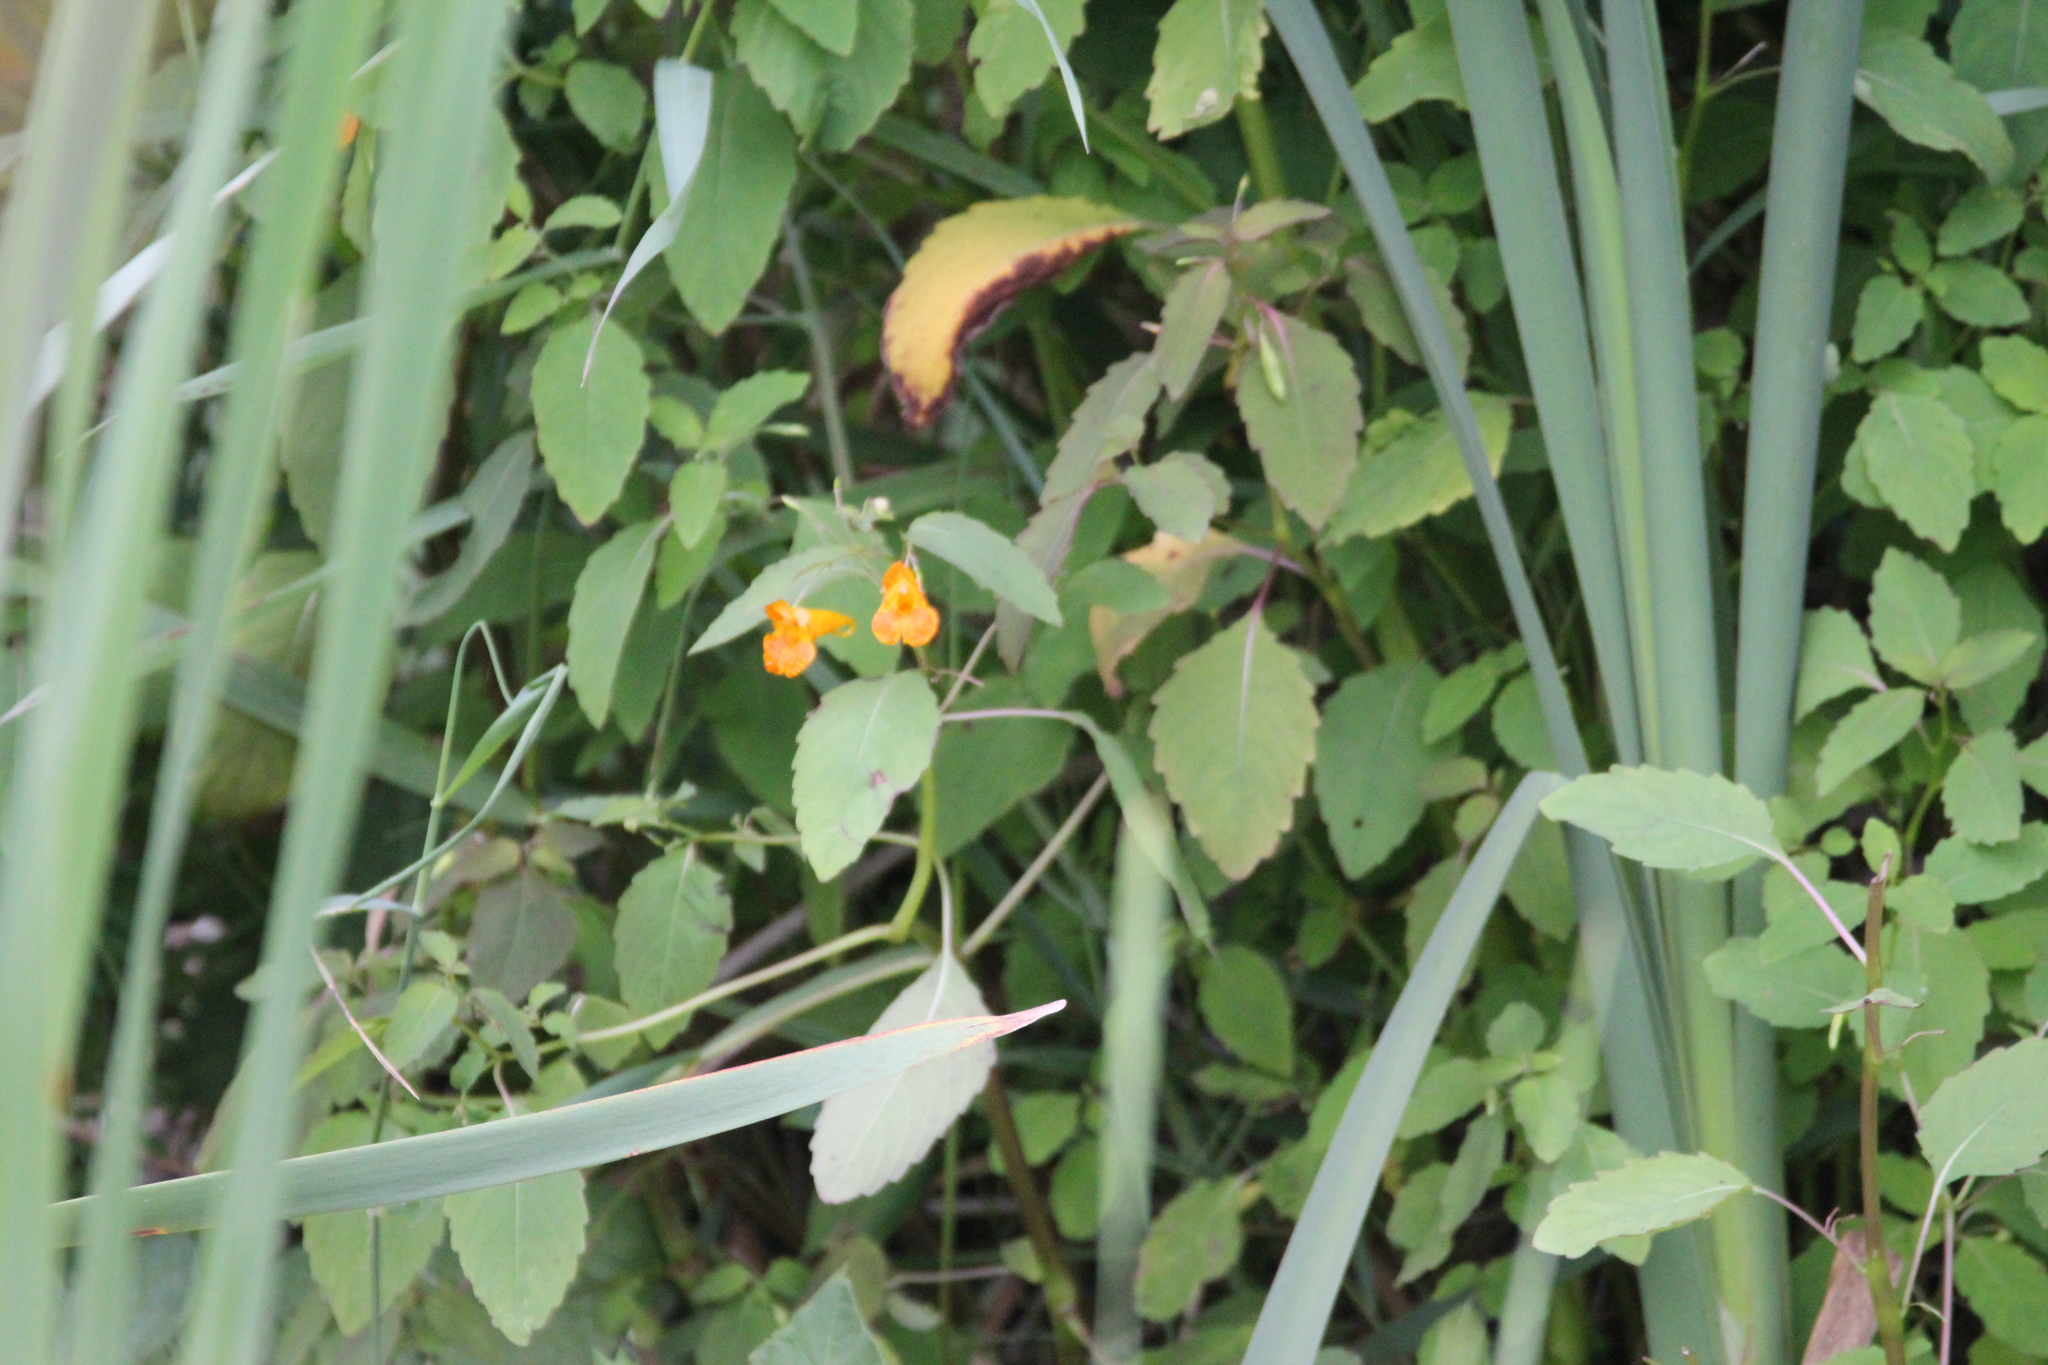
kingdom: Plantae
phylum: Tracheophyta
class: Magnoliopsida
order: Ericales
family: Balsaminaceae
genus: Impatiens
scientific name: Impatiens capensis
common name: Orange balsam
